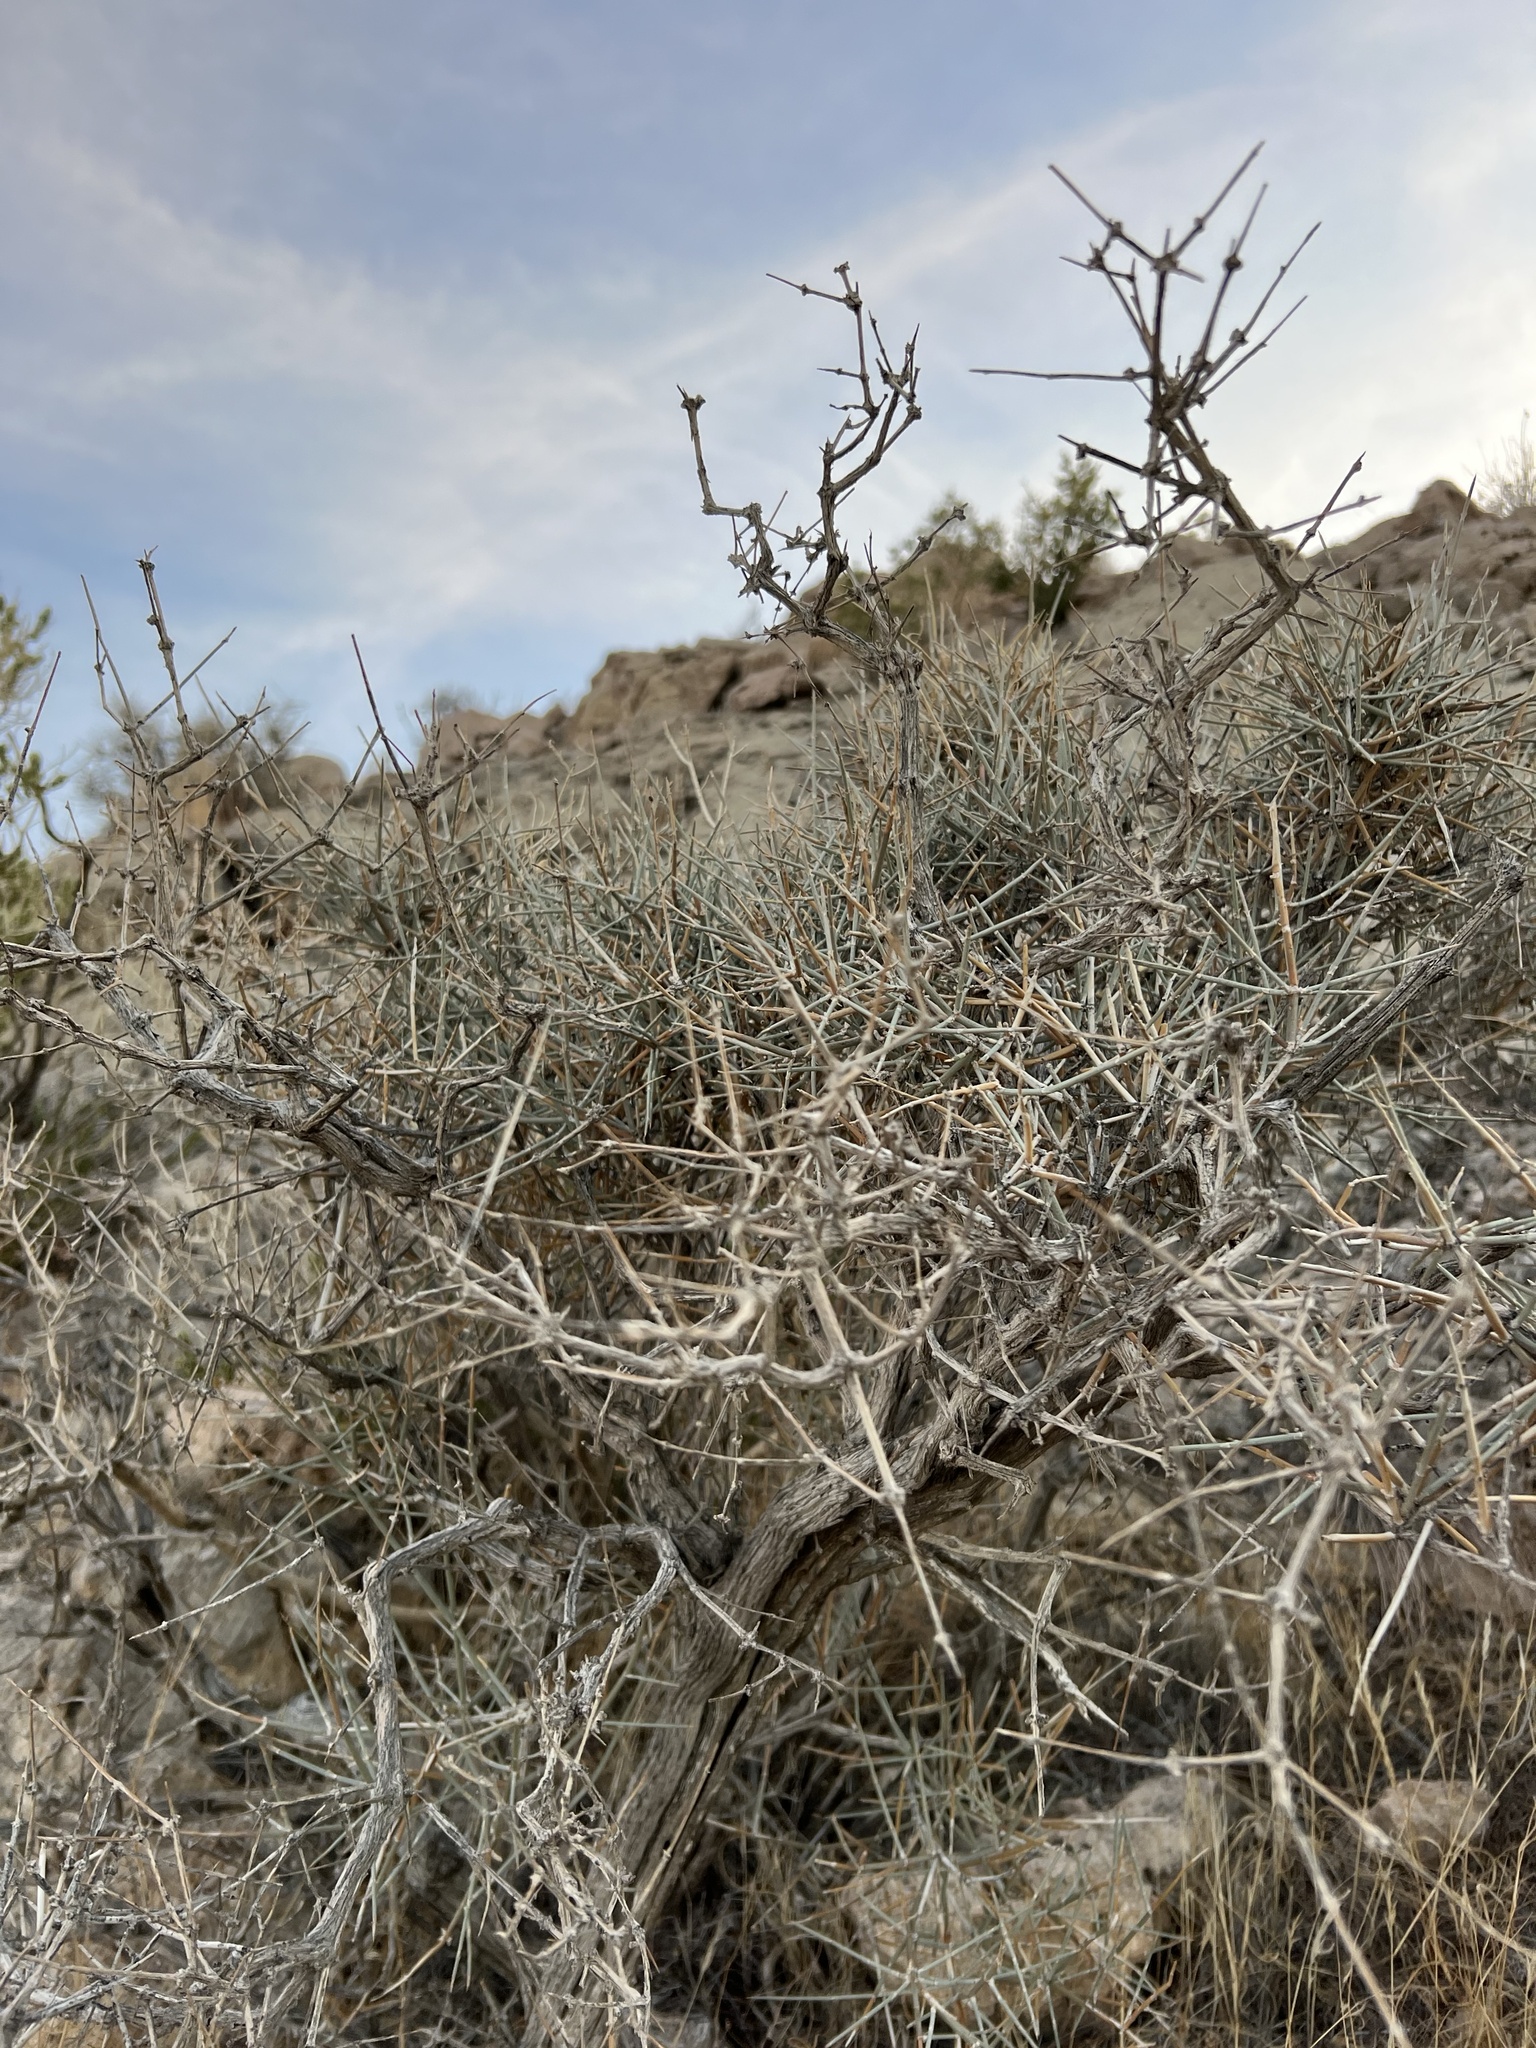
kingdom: Plantae
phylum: Tracheophyta
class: Gnetopsida
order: Ephedrales
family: Ephedraceae
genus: Ephedra
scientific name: Ephedra nevadensis
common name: Gray ephedra
